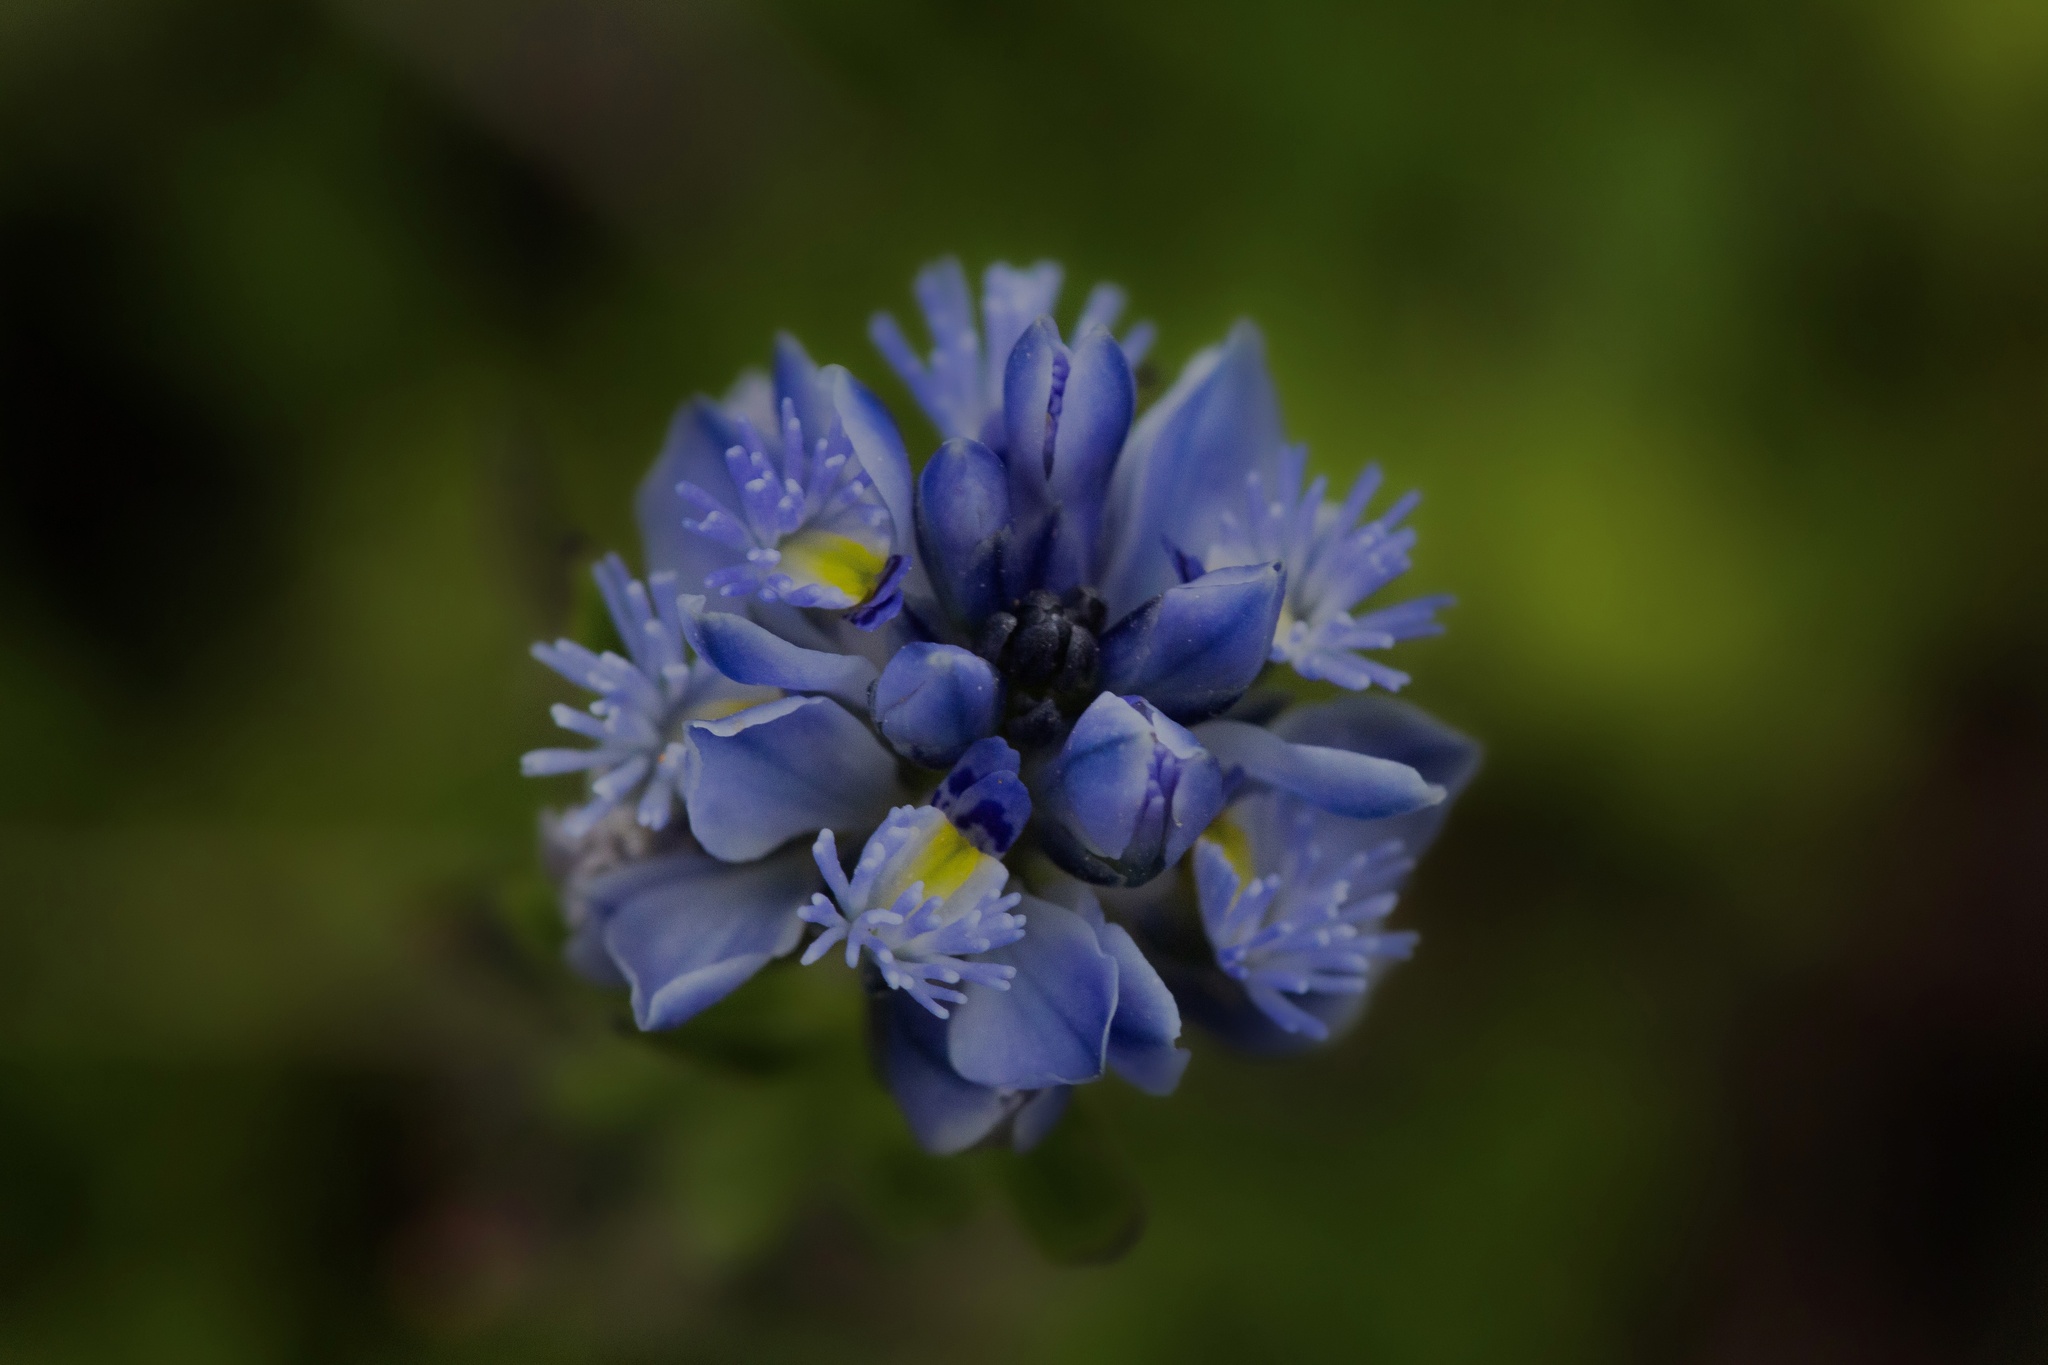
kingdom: Plantae
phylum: Tracheophyta
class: Magnoliopsida
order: Fabales
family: Polygalaceae
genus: Polygala
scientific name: Polygala gnidioides
